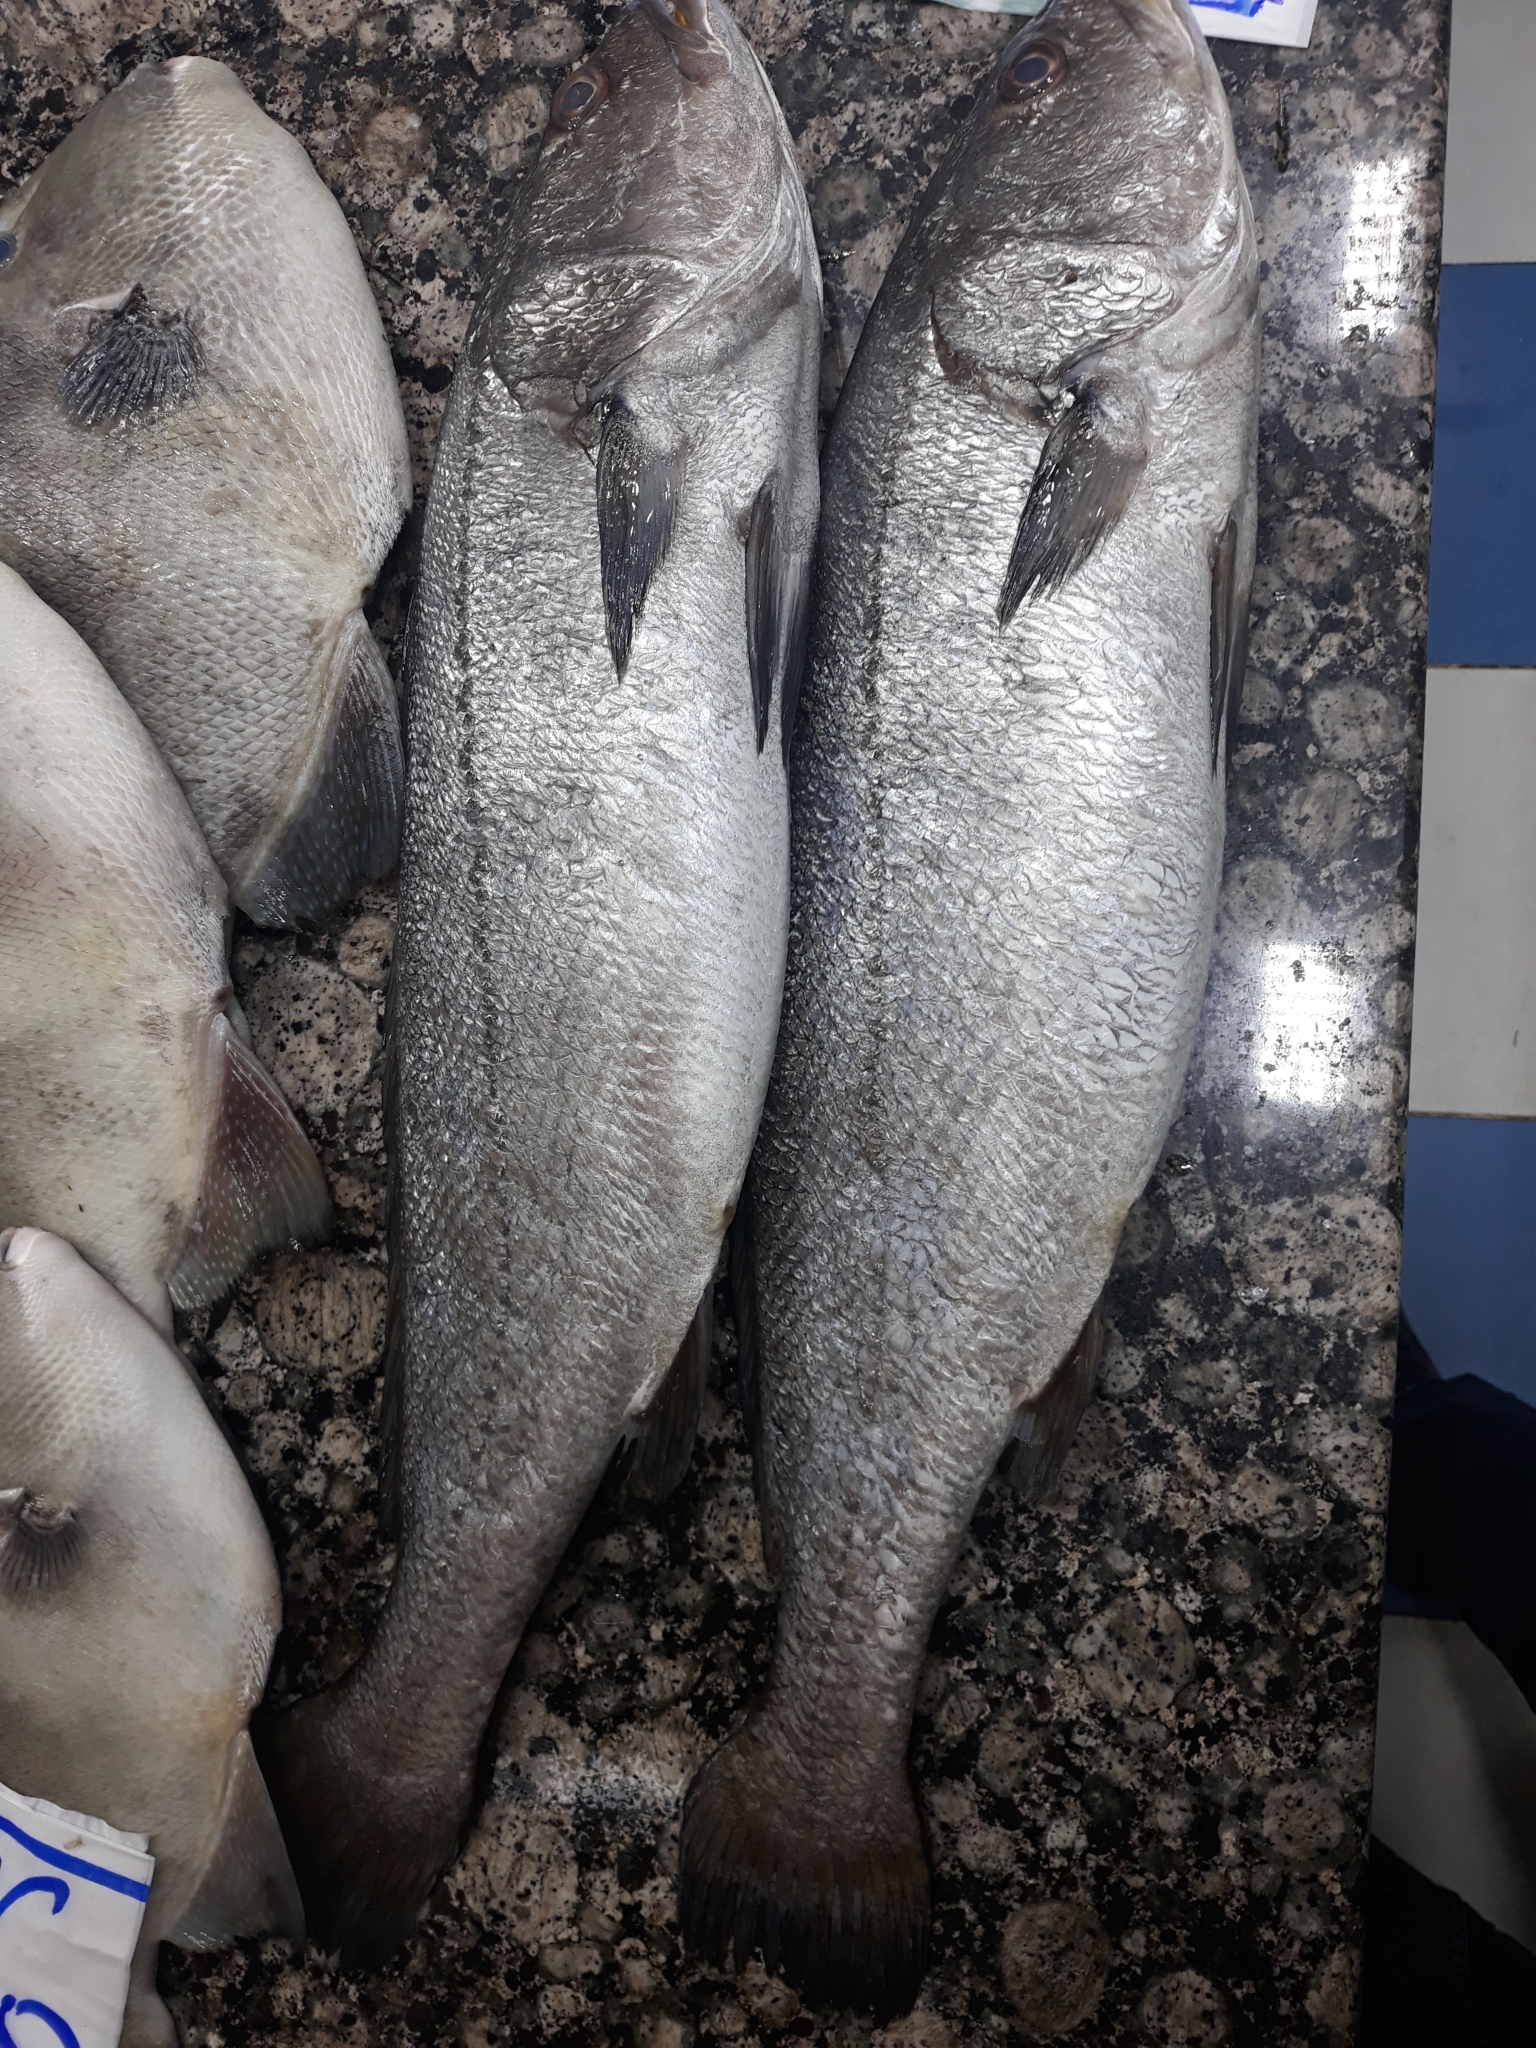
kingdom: Animalia
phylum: Chordata
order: Perciformes
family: Sciaenidae
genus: Argyrosomus
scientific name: Argyrosomus regius
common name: Meagre
